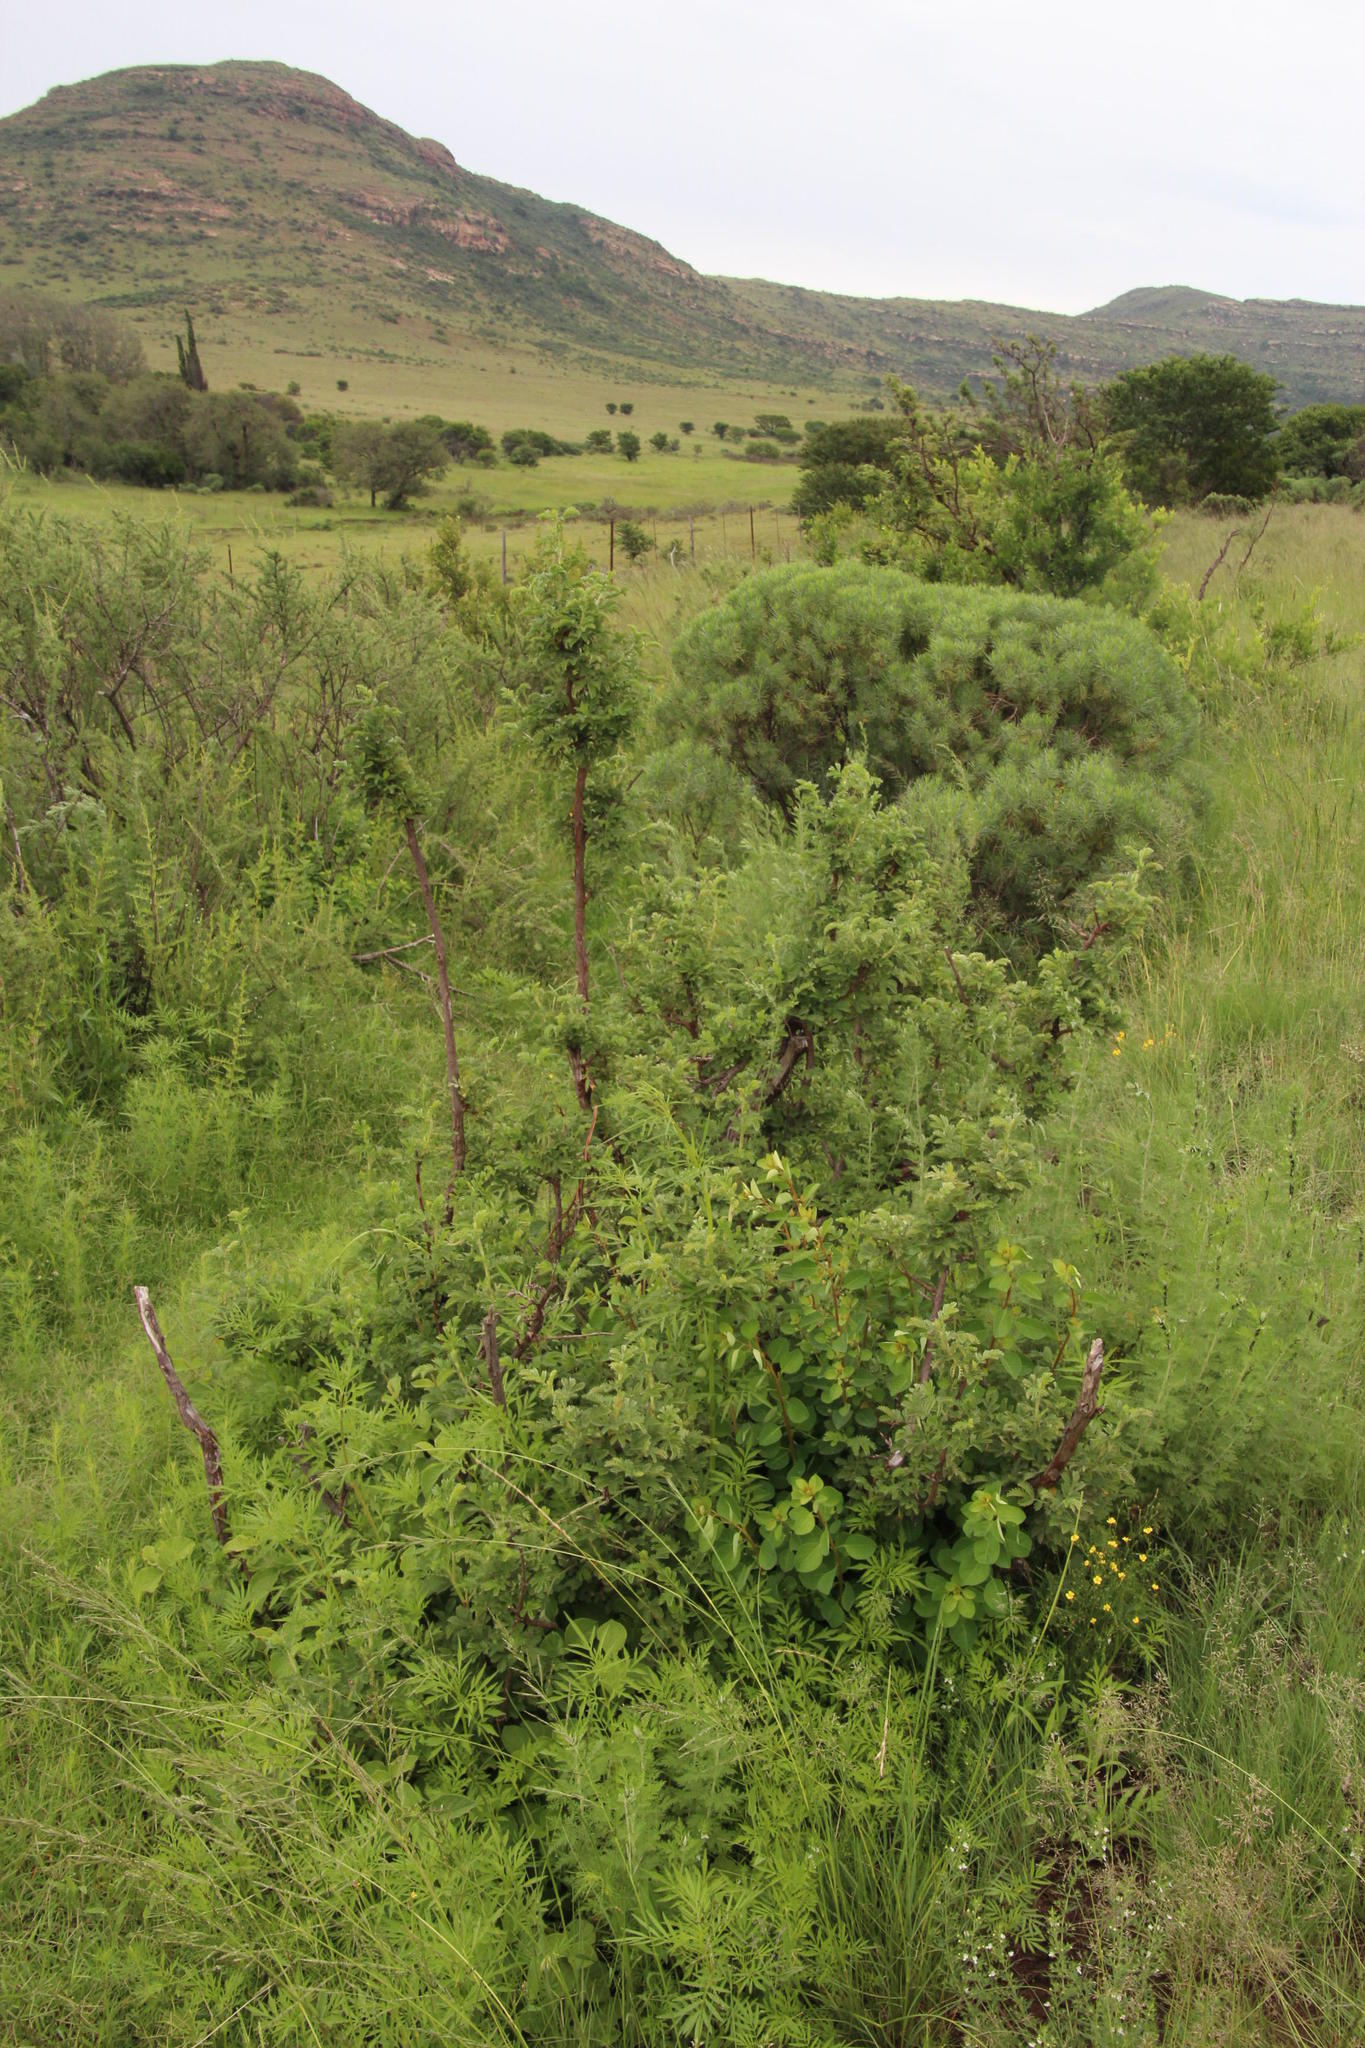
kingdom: Plantae
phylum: Tracheophyta
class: Magnoliopsida
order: Rosales
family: Rosaceae
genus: Leucosidea
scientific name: Leucosidea sericea
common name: Oldwood
